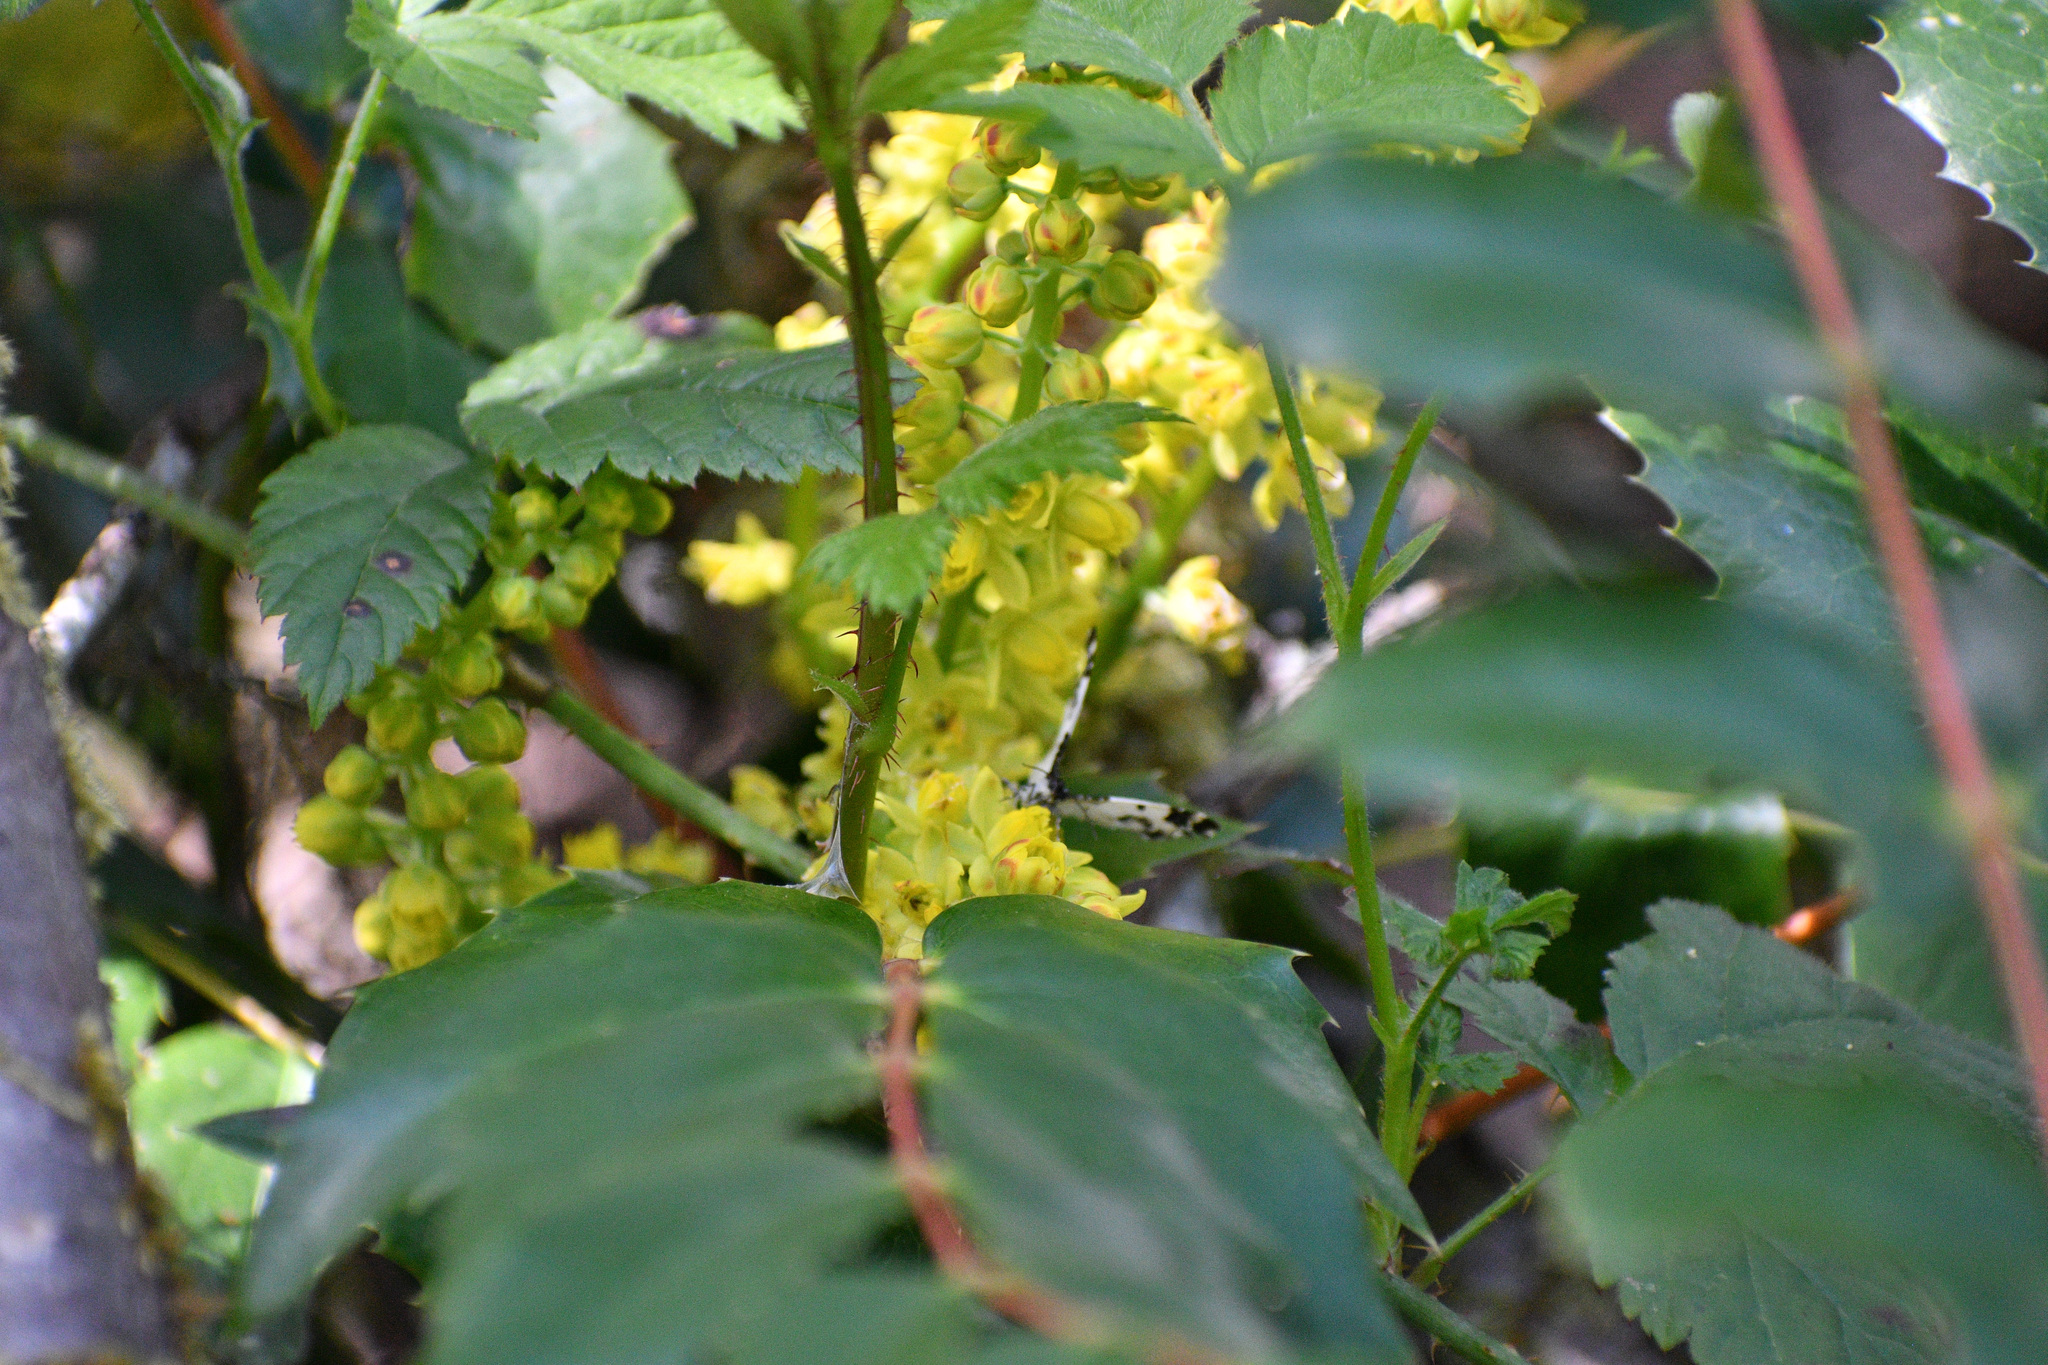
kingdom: Plantae
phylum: Tracheophyta
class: Magnoliopsida
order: Ranunculales
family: Berberidaceae
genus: Mahonia
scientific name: Mahonia nervosa
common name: Cascade oregon-grape
